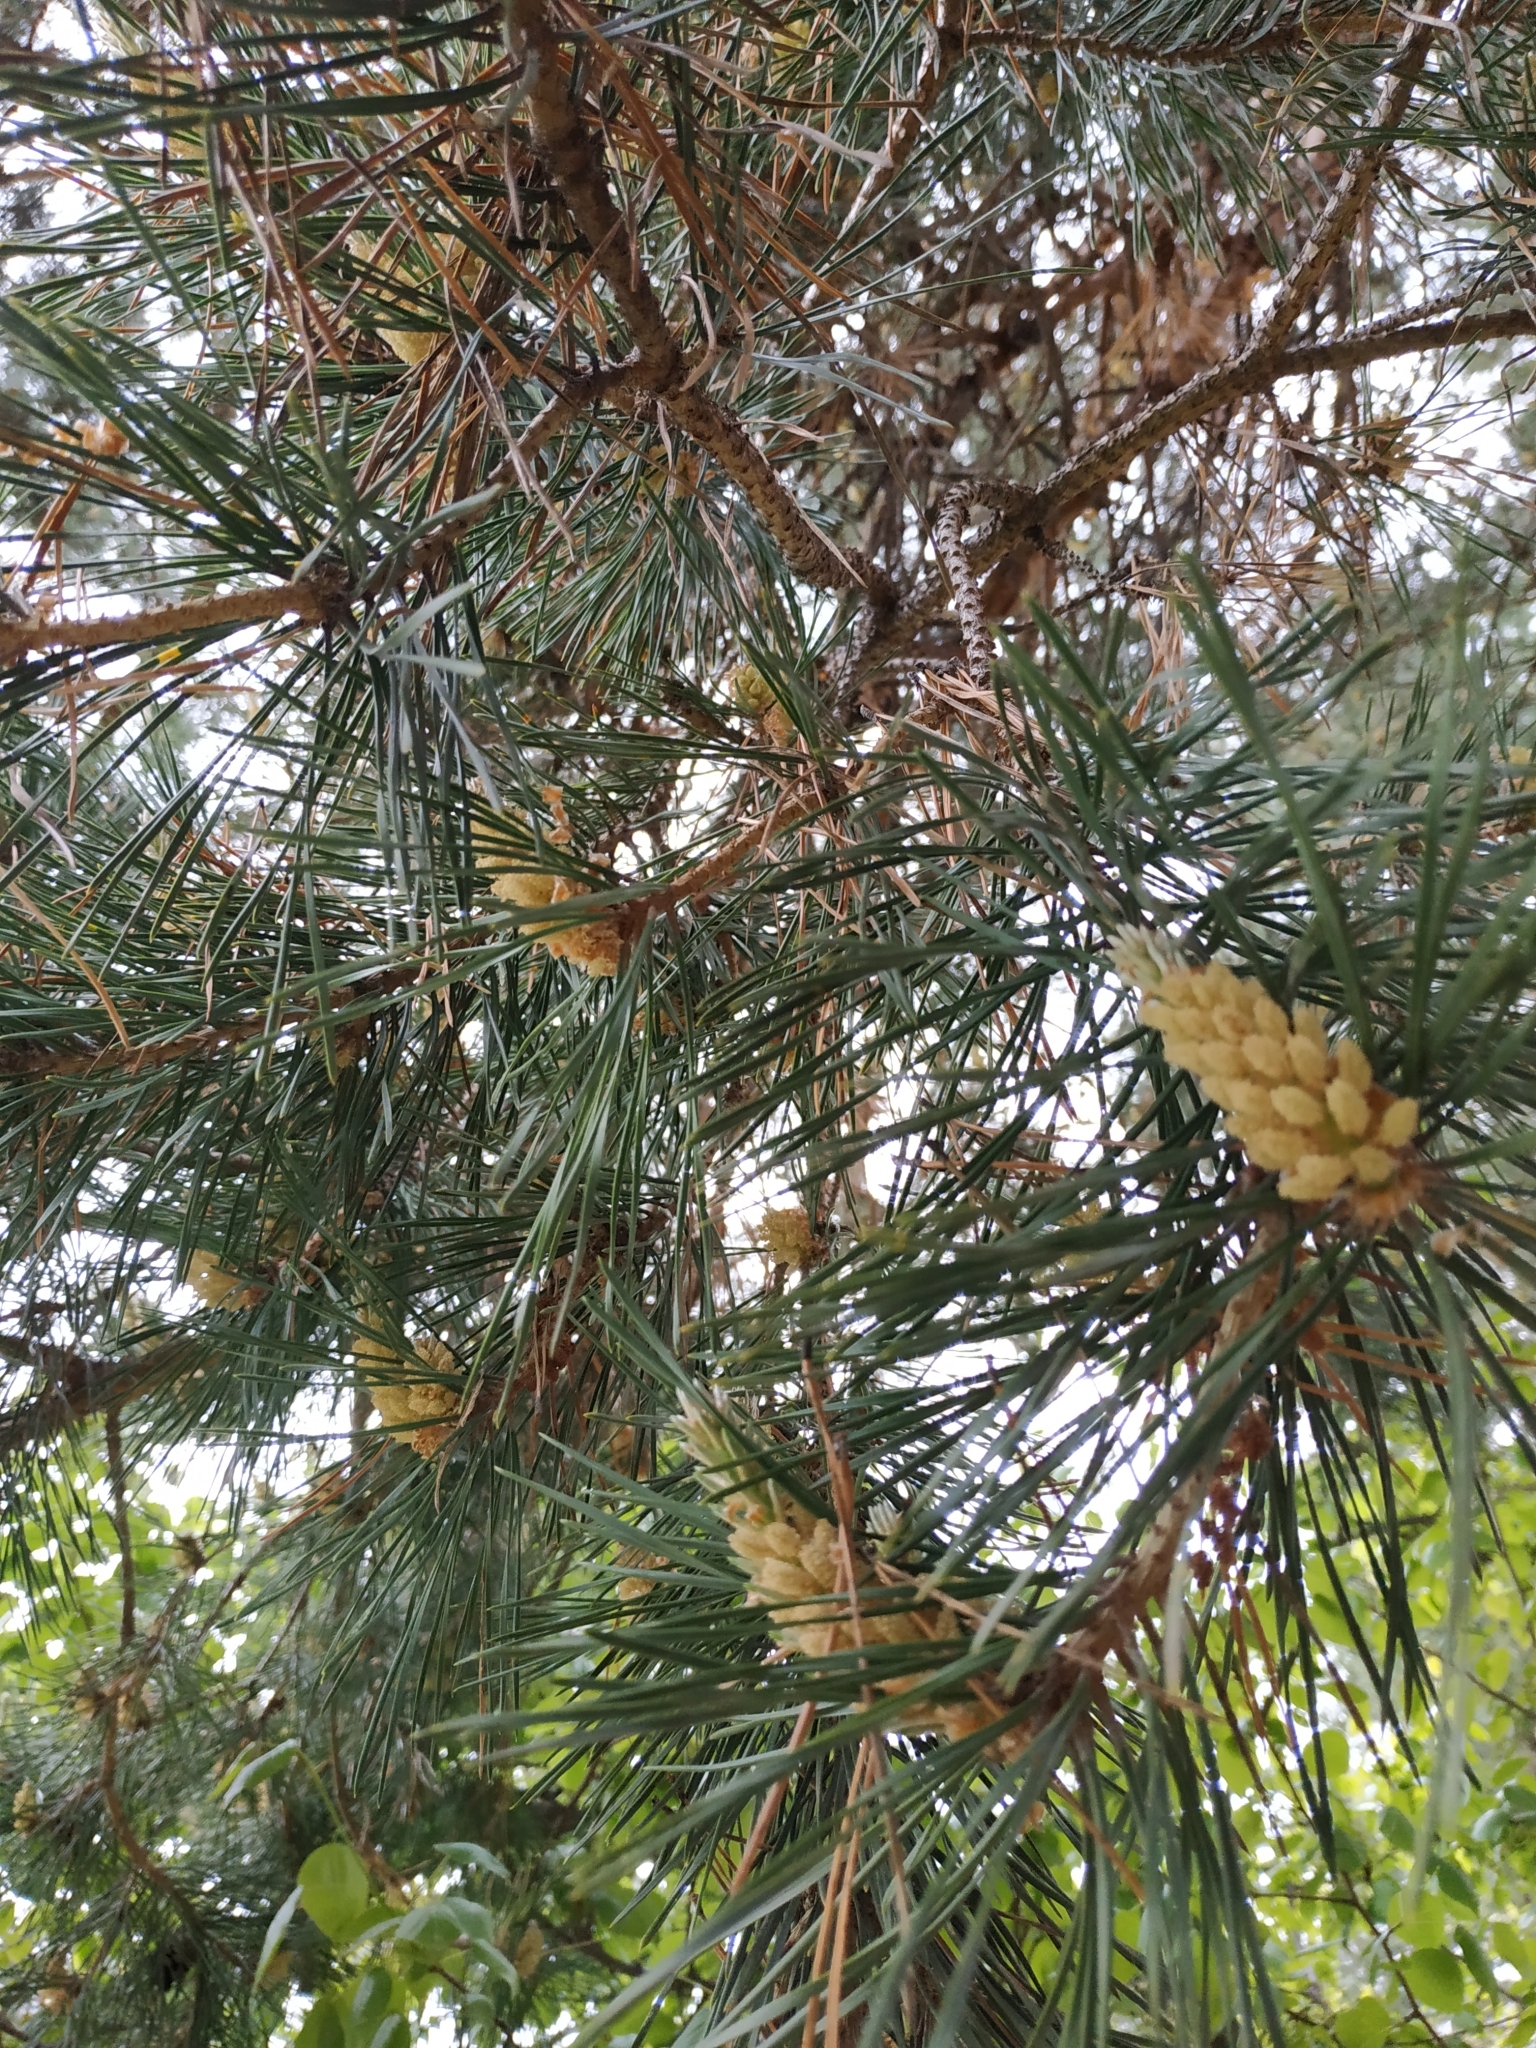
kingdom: Plantae
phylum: Tracheophyta
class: Pinopsida
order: Pinales
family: Pinaceae
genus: Pinus
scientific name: Pinus sylvestris
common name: Scots pine
